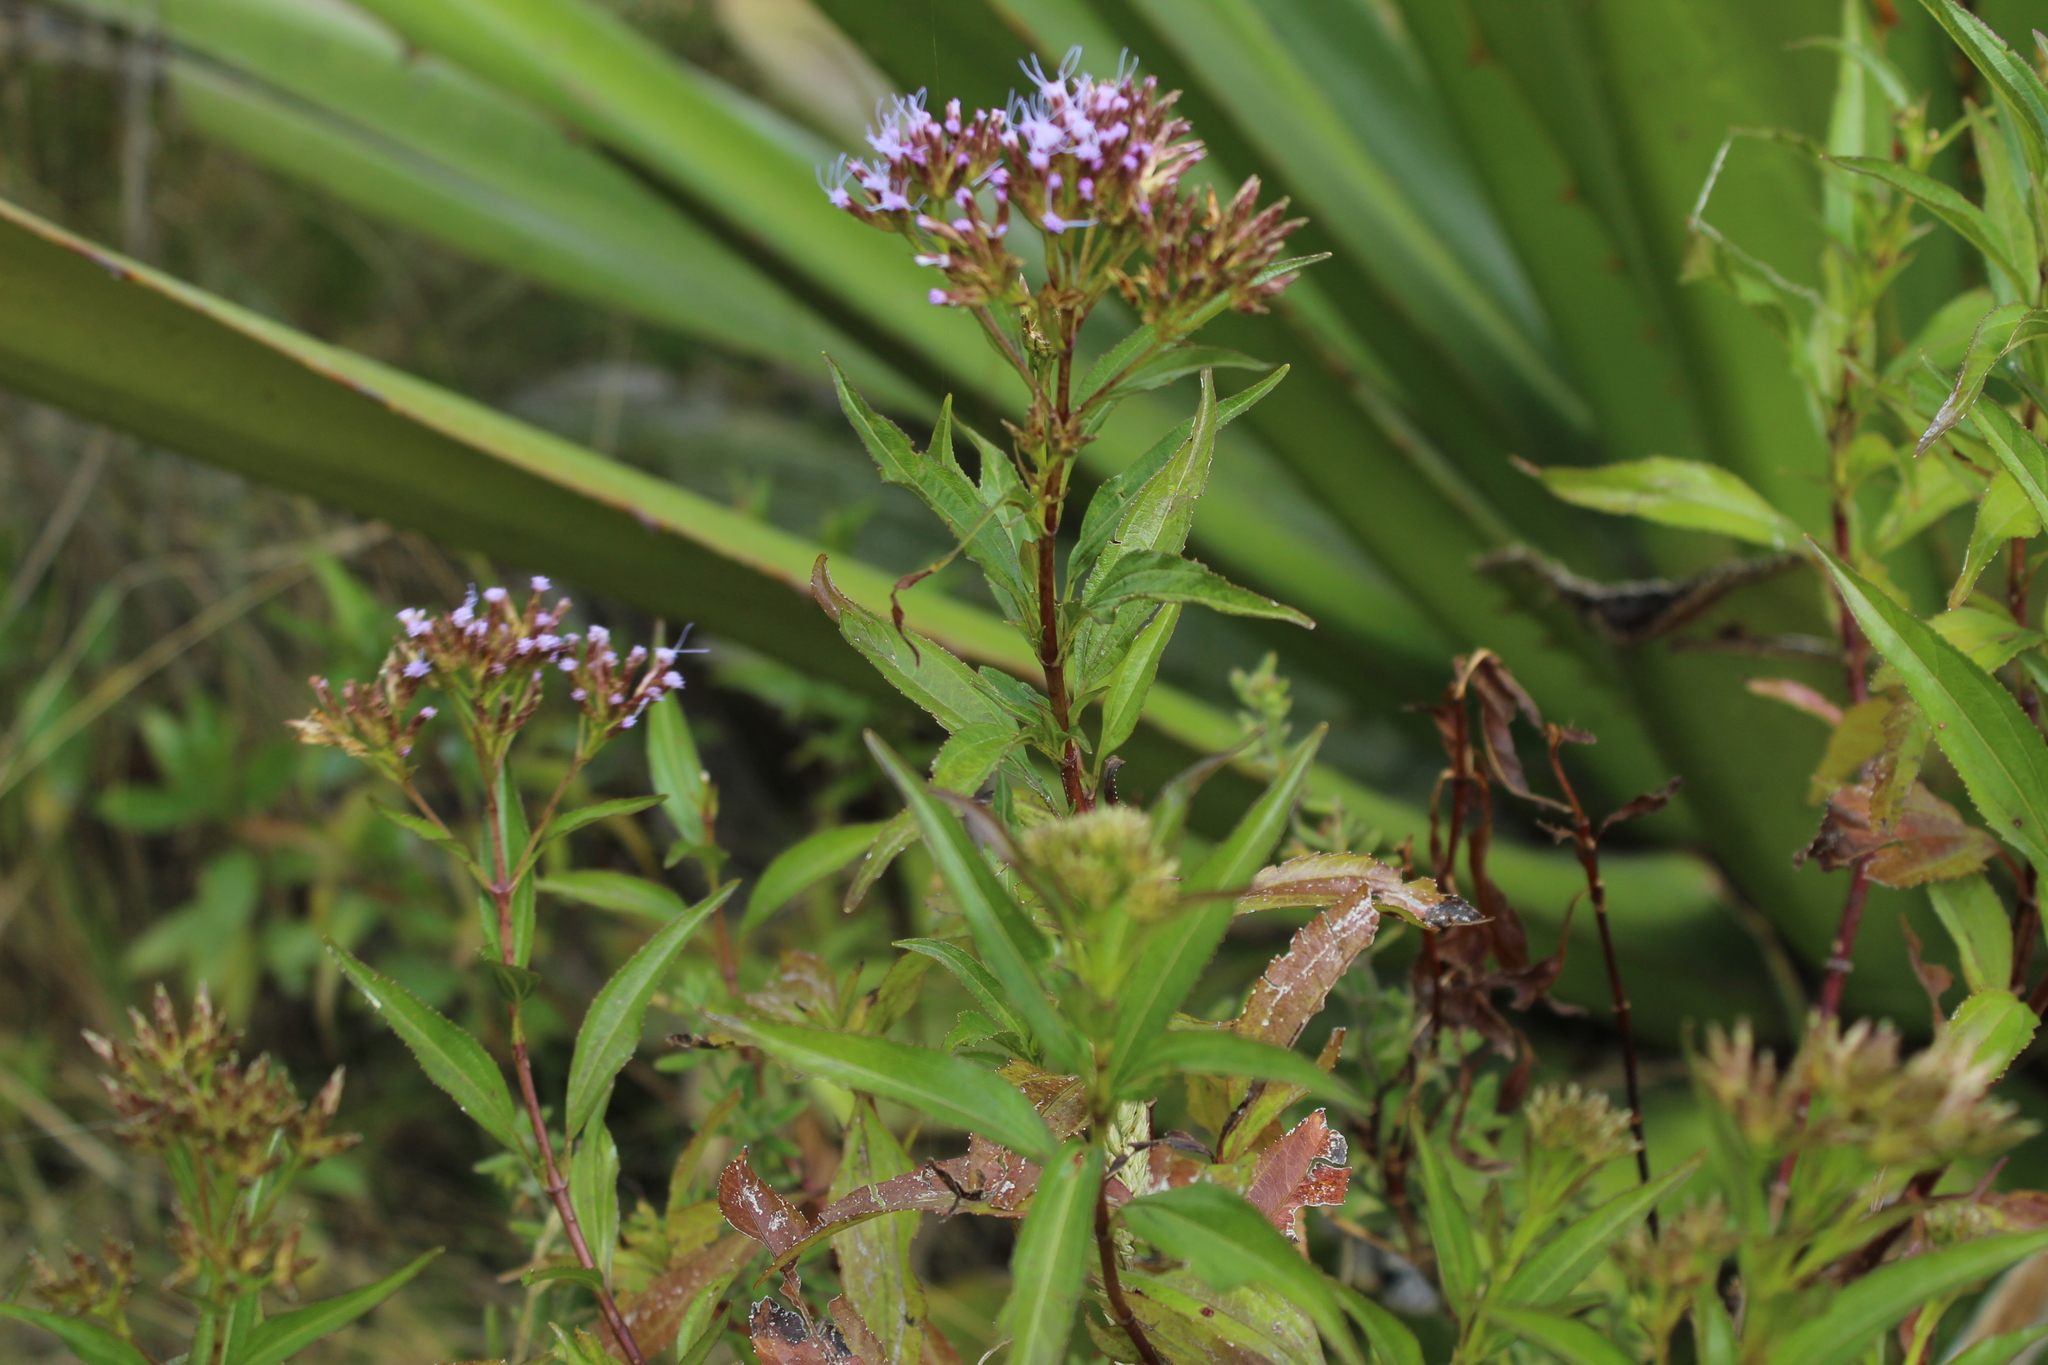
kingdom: Plantae
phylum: Tracheophyta
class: Magnoliopsida
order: Asterales
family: Asteraceae
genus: Chromolaena
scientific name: Chromolaena perglabra
